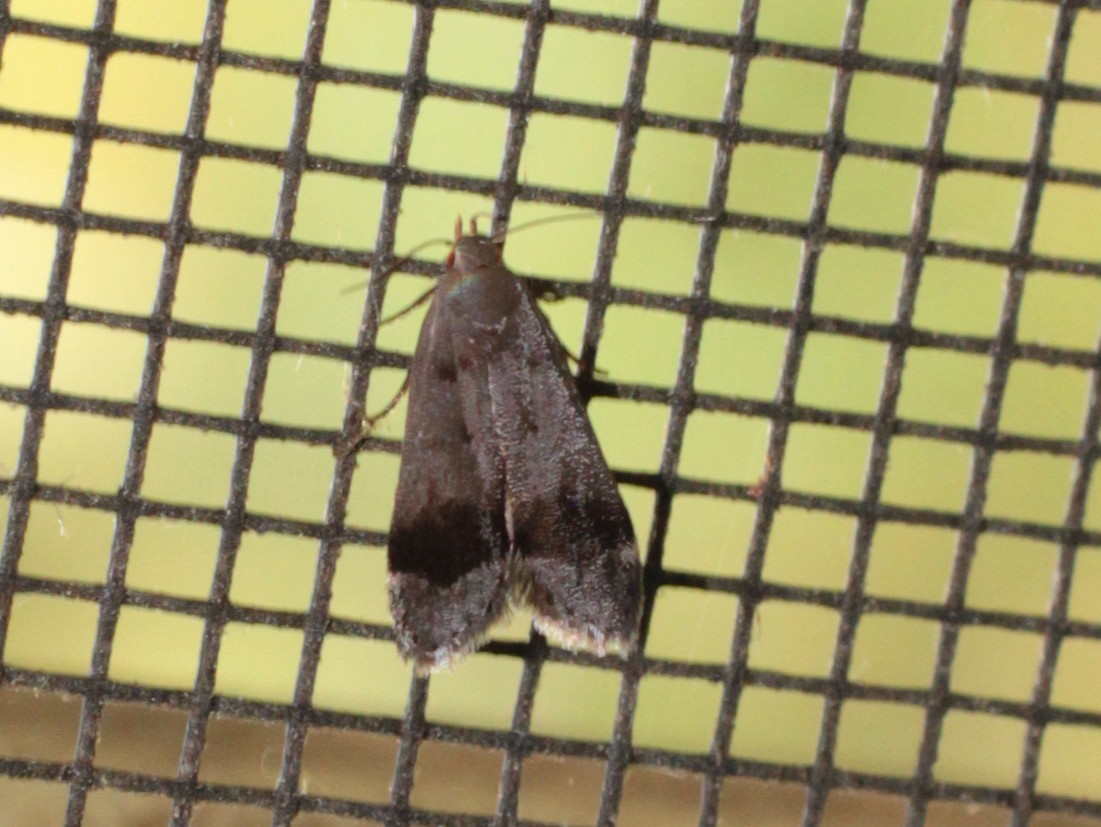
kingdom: Animalia
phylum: Arthropoda
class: Insecta
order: Lepidoptera
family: Gelechiidae
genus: Anacampsis
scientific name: Anacampsis fragariella
